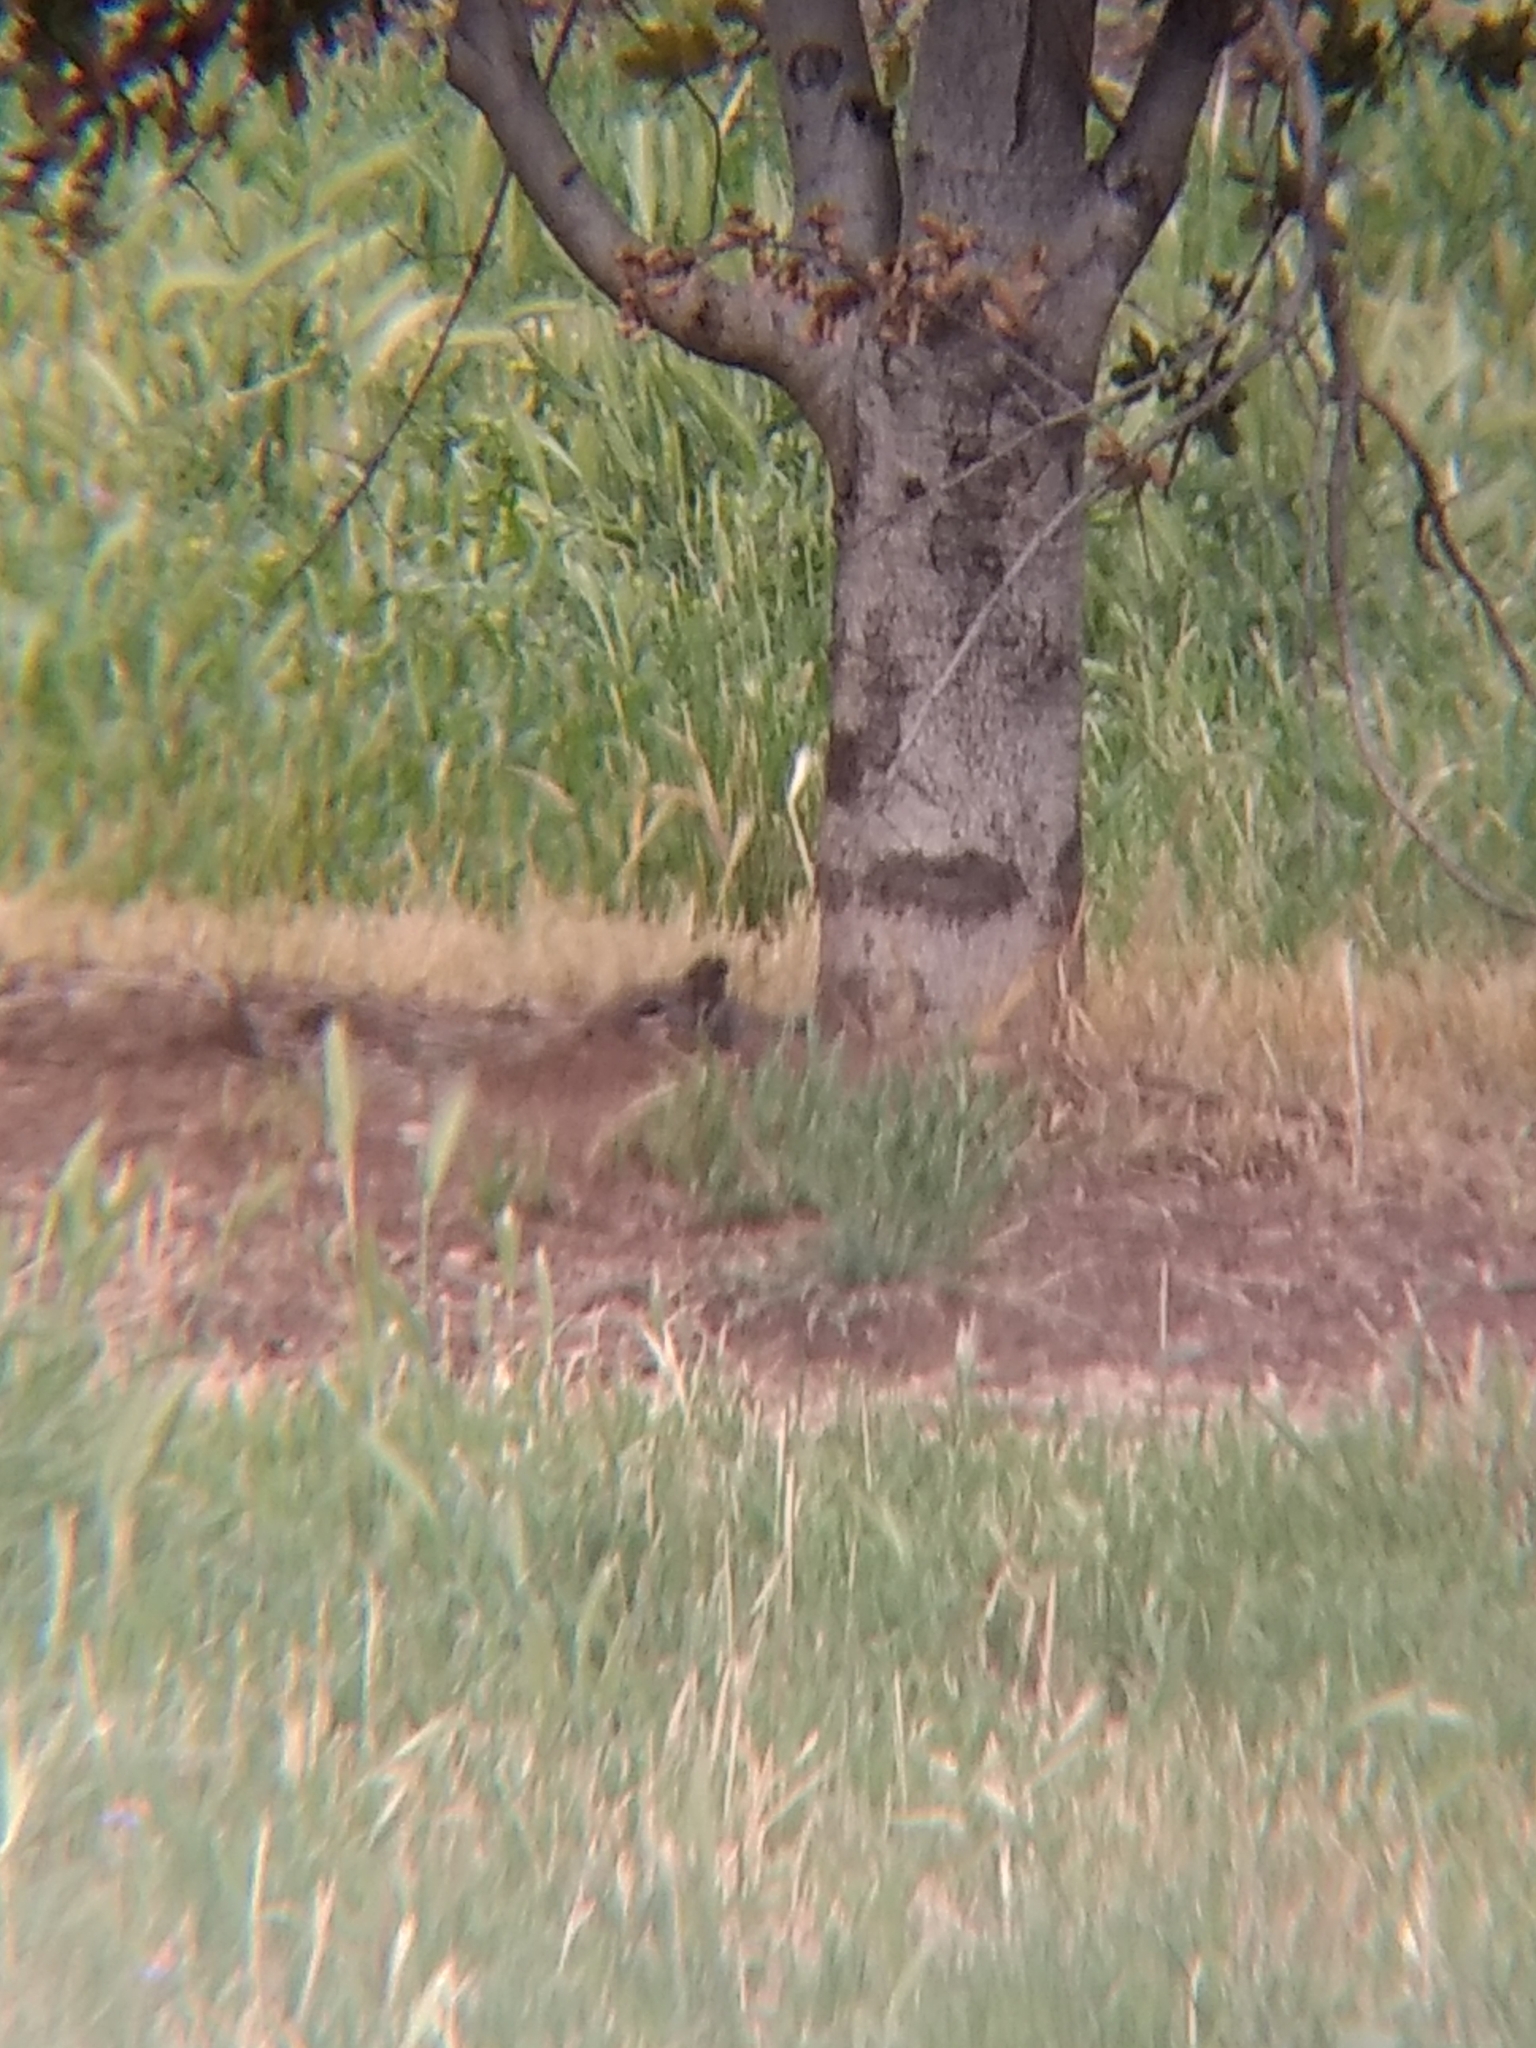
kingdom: Animalia
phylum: Chordata
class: Mammalia
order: Rodentia
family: Sciuridae
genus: Otospermophilus
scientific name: Otospermophilus beecheyi
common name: California ground squirrel
